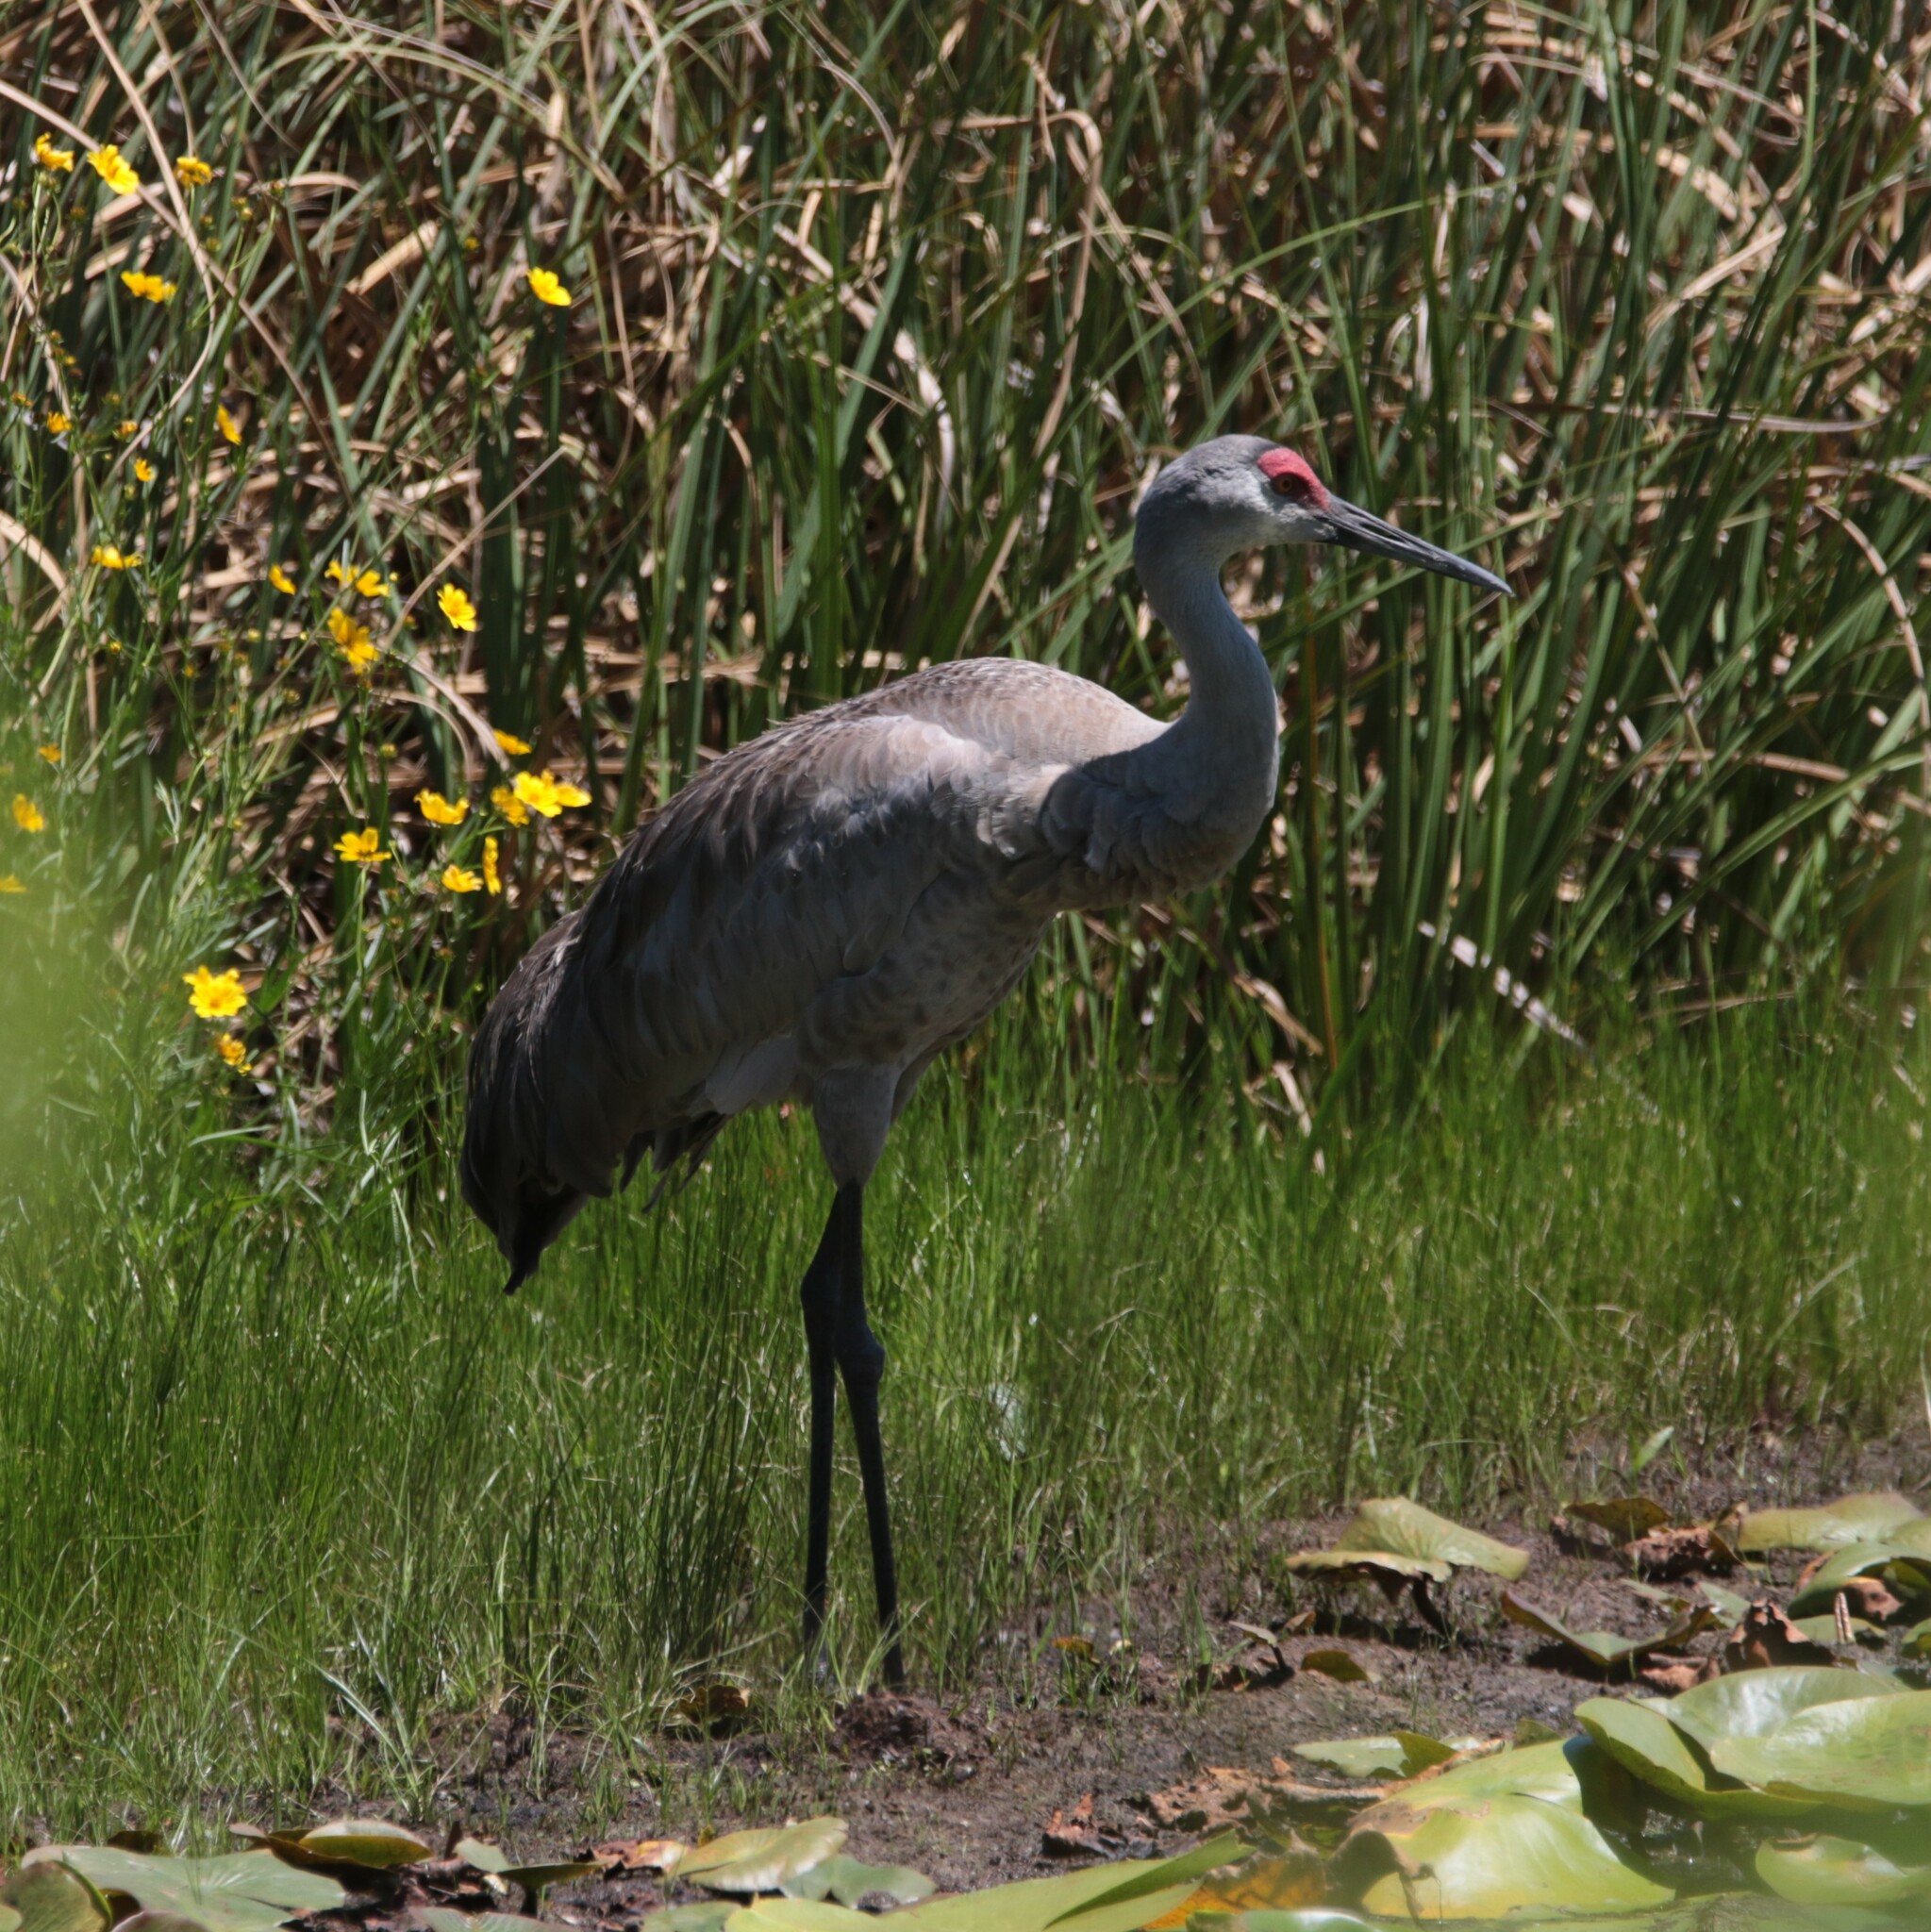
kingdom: Animalia
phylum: Chordata
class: Aves
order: Gruiformes
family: Gruidae
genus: Grus
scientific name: Grus canadensis
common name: Sandhill crane
